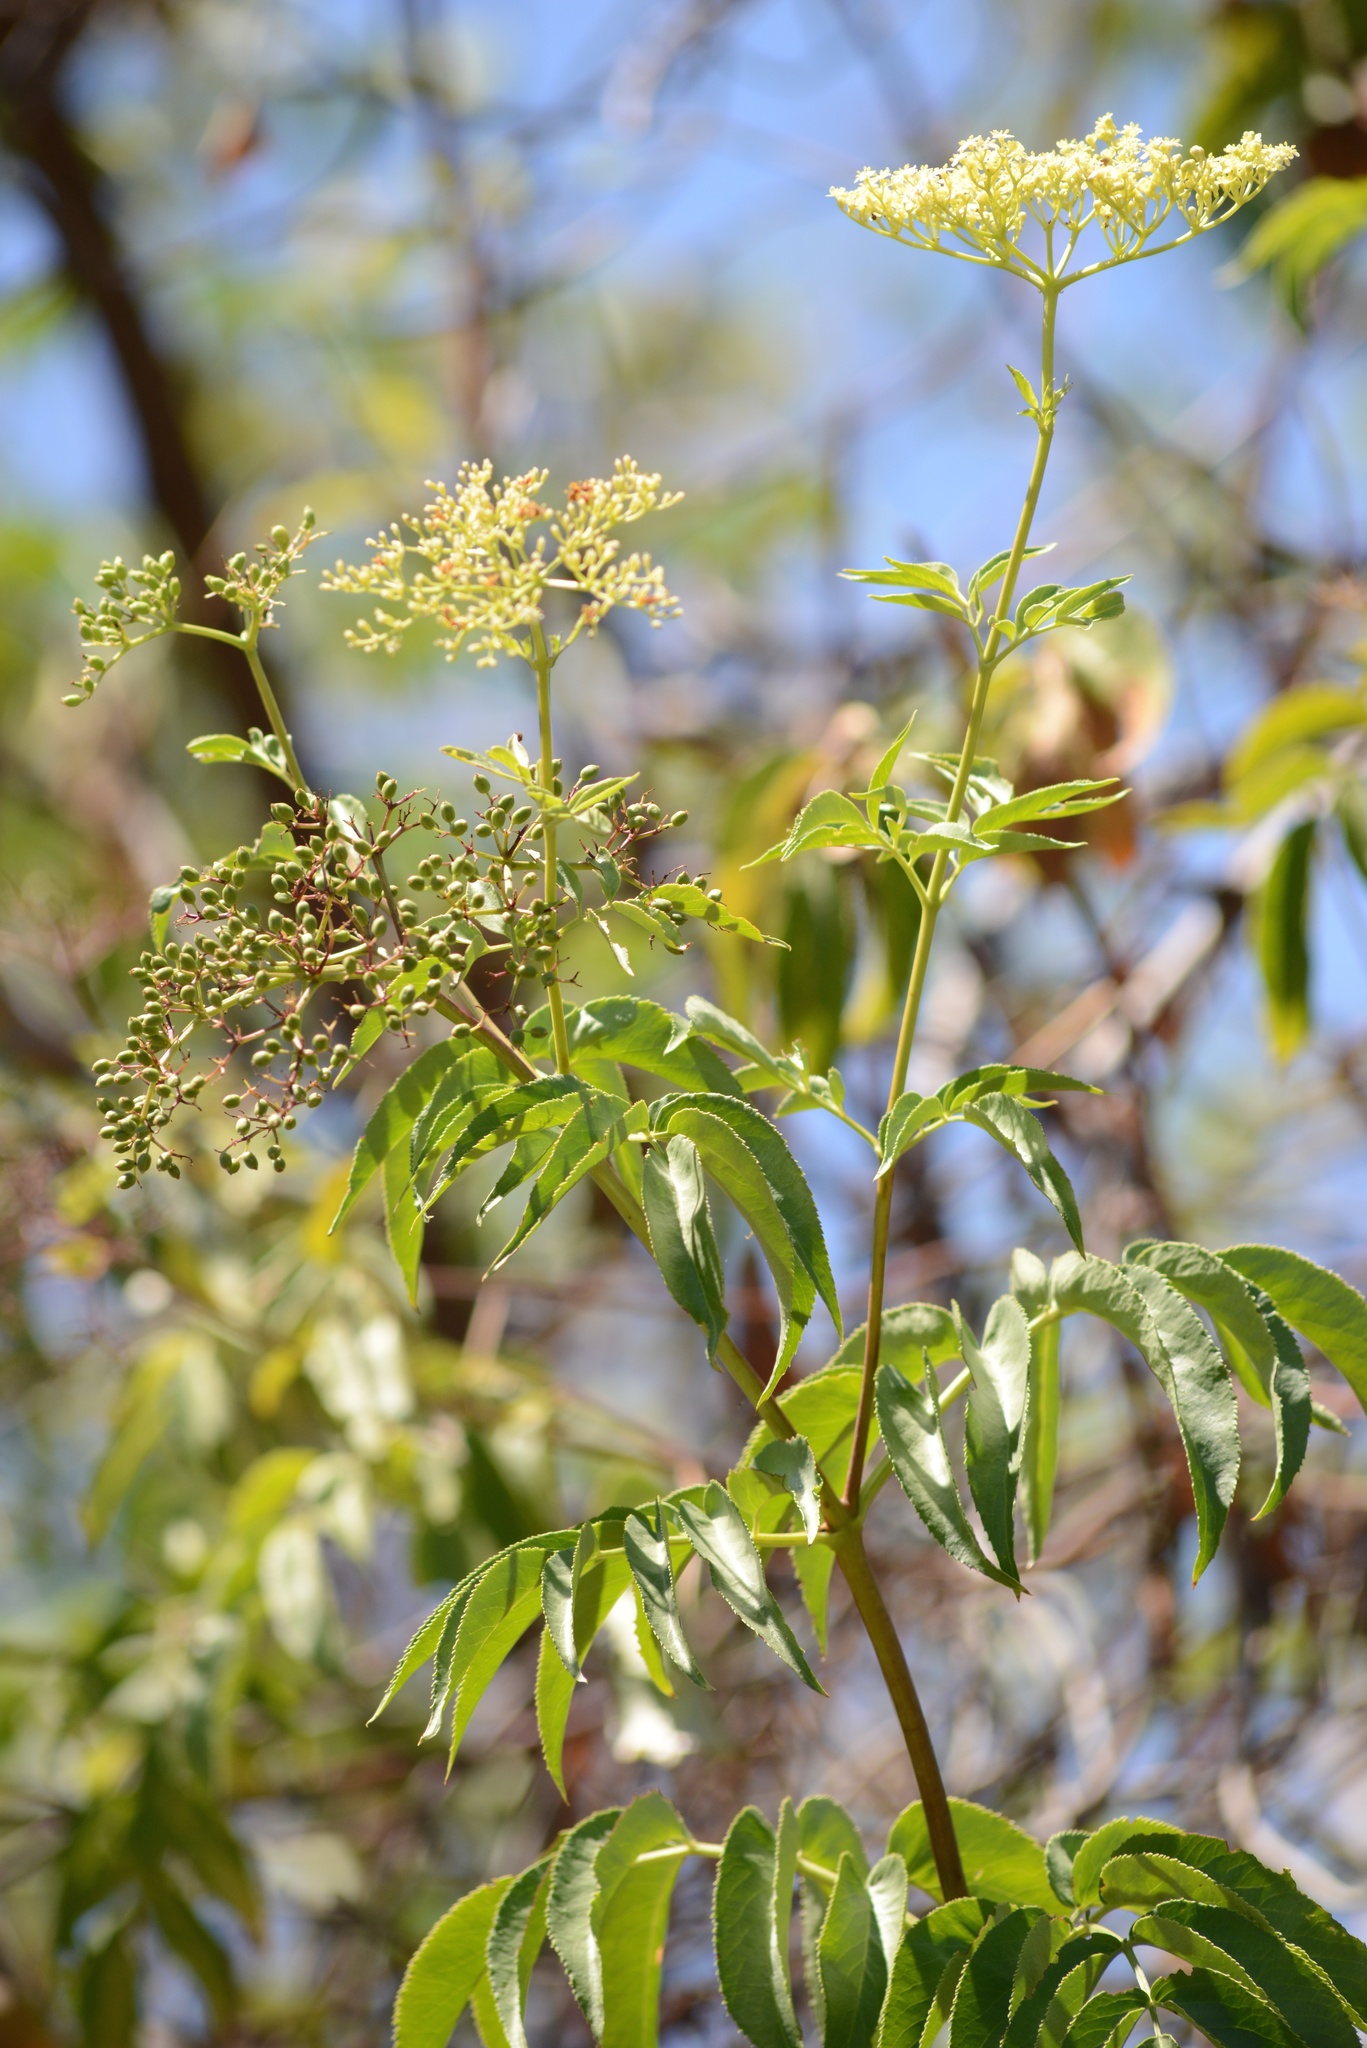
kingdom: Plantae
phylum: Tracheophyta
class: Magnoliopsida
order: Dipsacales
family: Viburnaceae
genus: Sambucus
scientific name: Sambucus cerulea
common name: Blue elder
